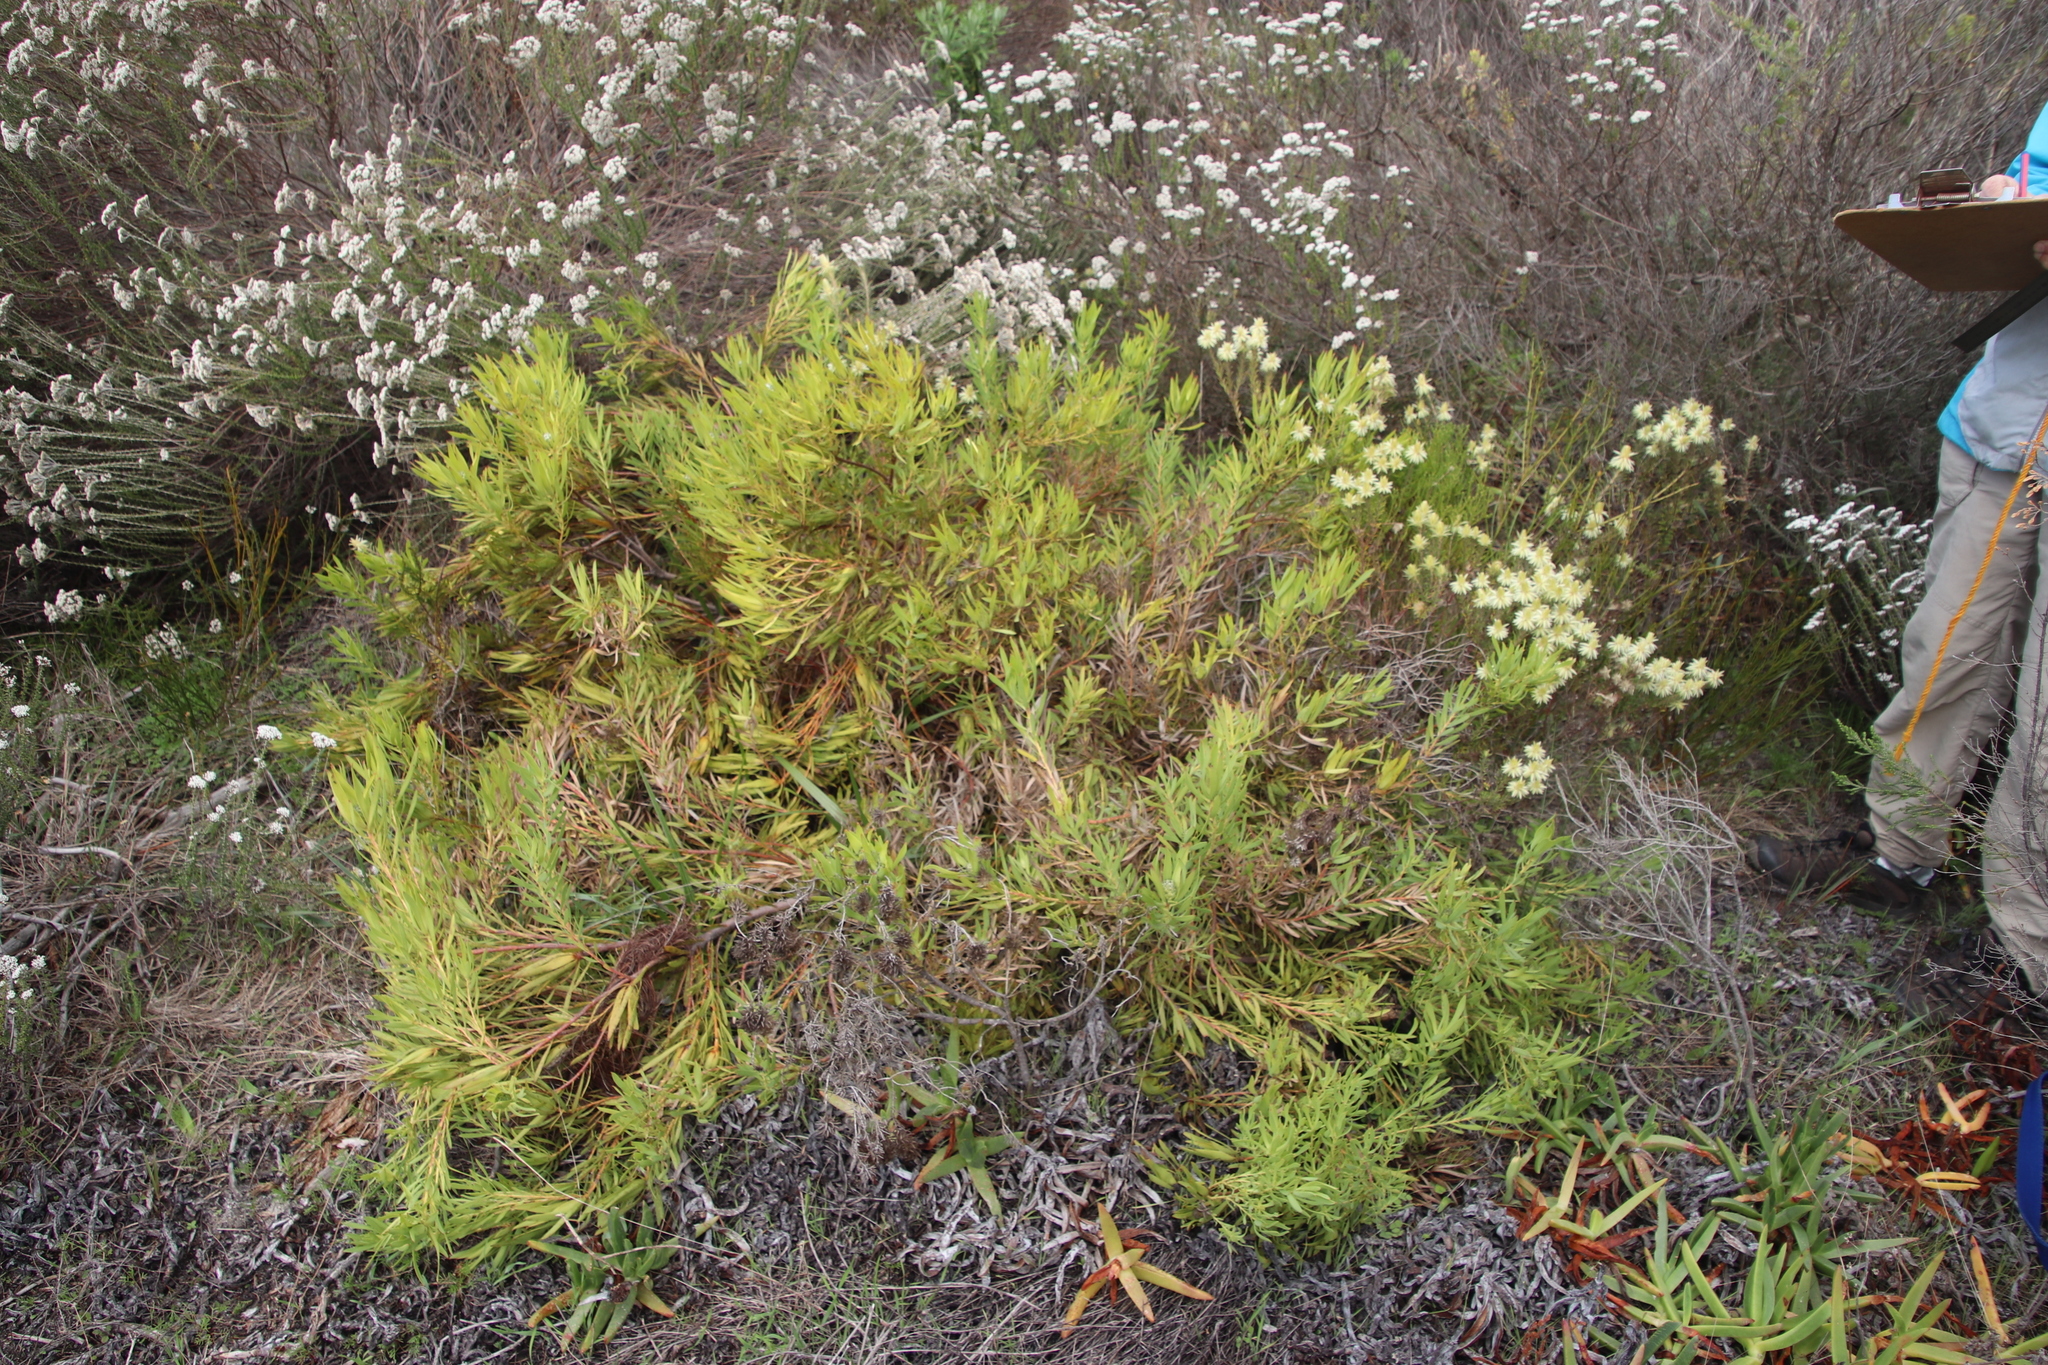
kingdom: Plantae
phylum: Tracheophyta
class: Magnoliopsida
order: Proteales
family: Proteaceae
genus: Leucadendron
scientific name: Leucadendron salignum
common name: Common sunshine conebush
